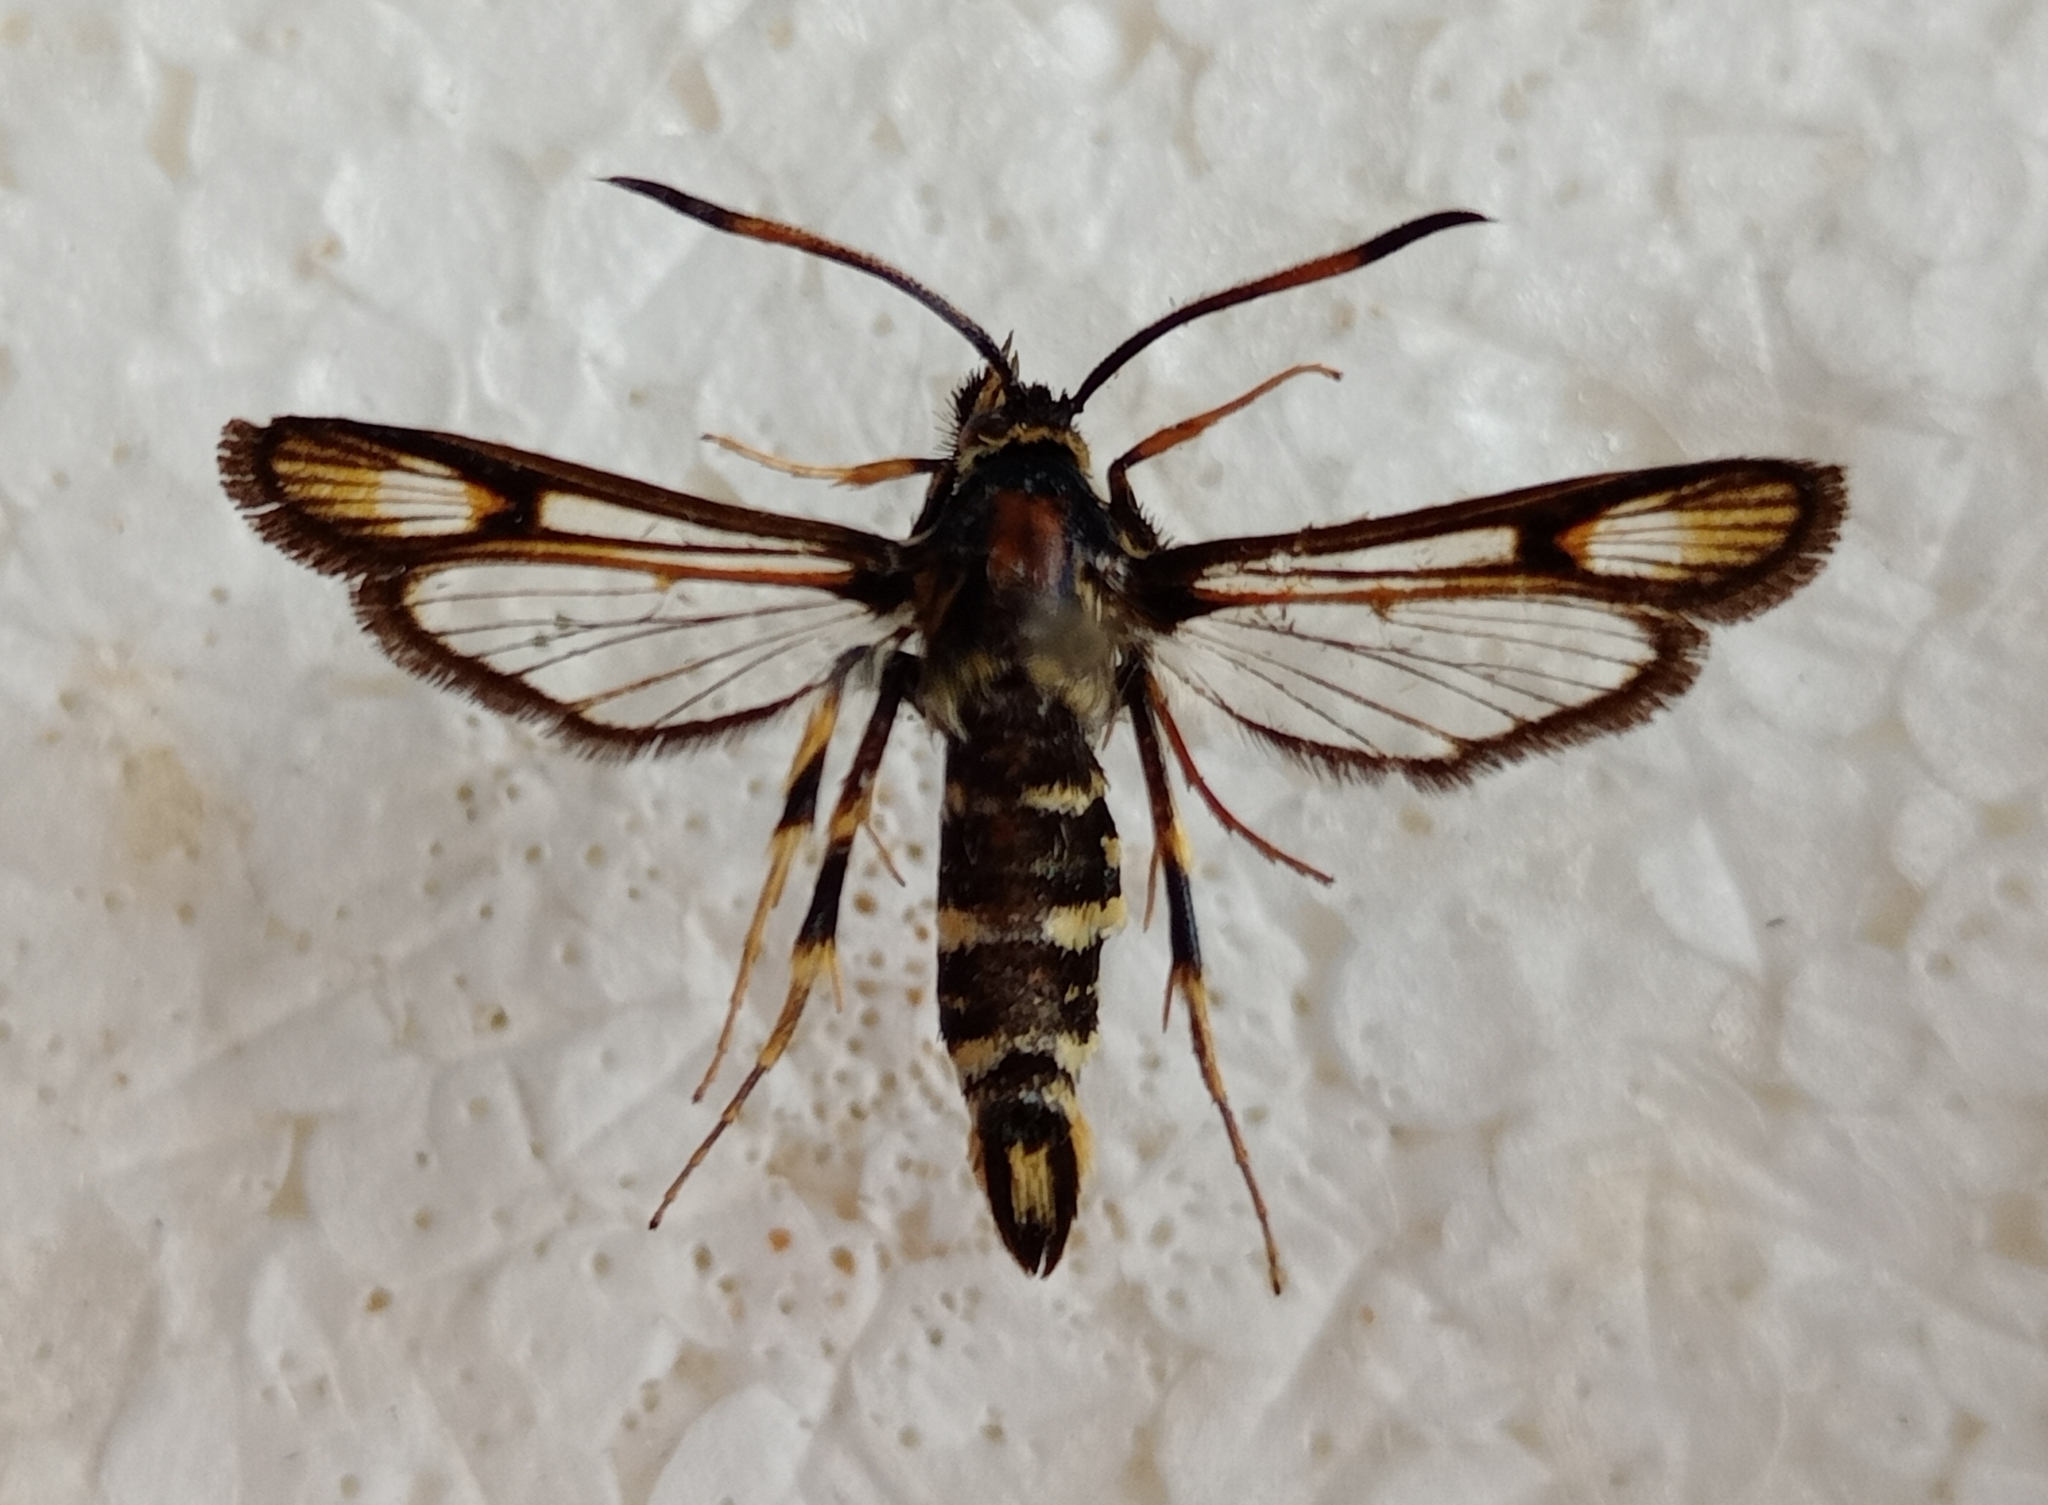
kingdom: Animalia
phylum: Arthropoda
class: Insecta
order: Lepidoptera
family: Sesiidae
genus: Bembecia
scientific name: Bembecia pavicevici
